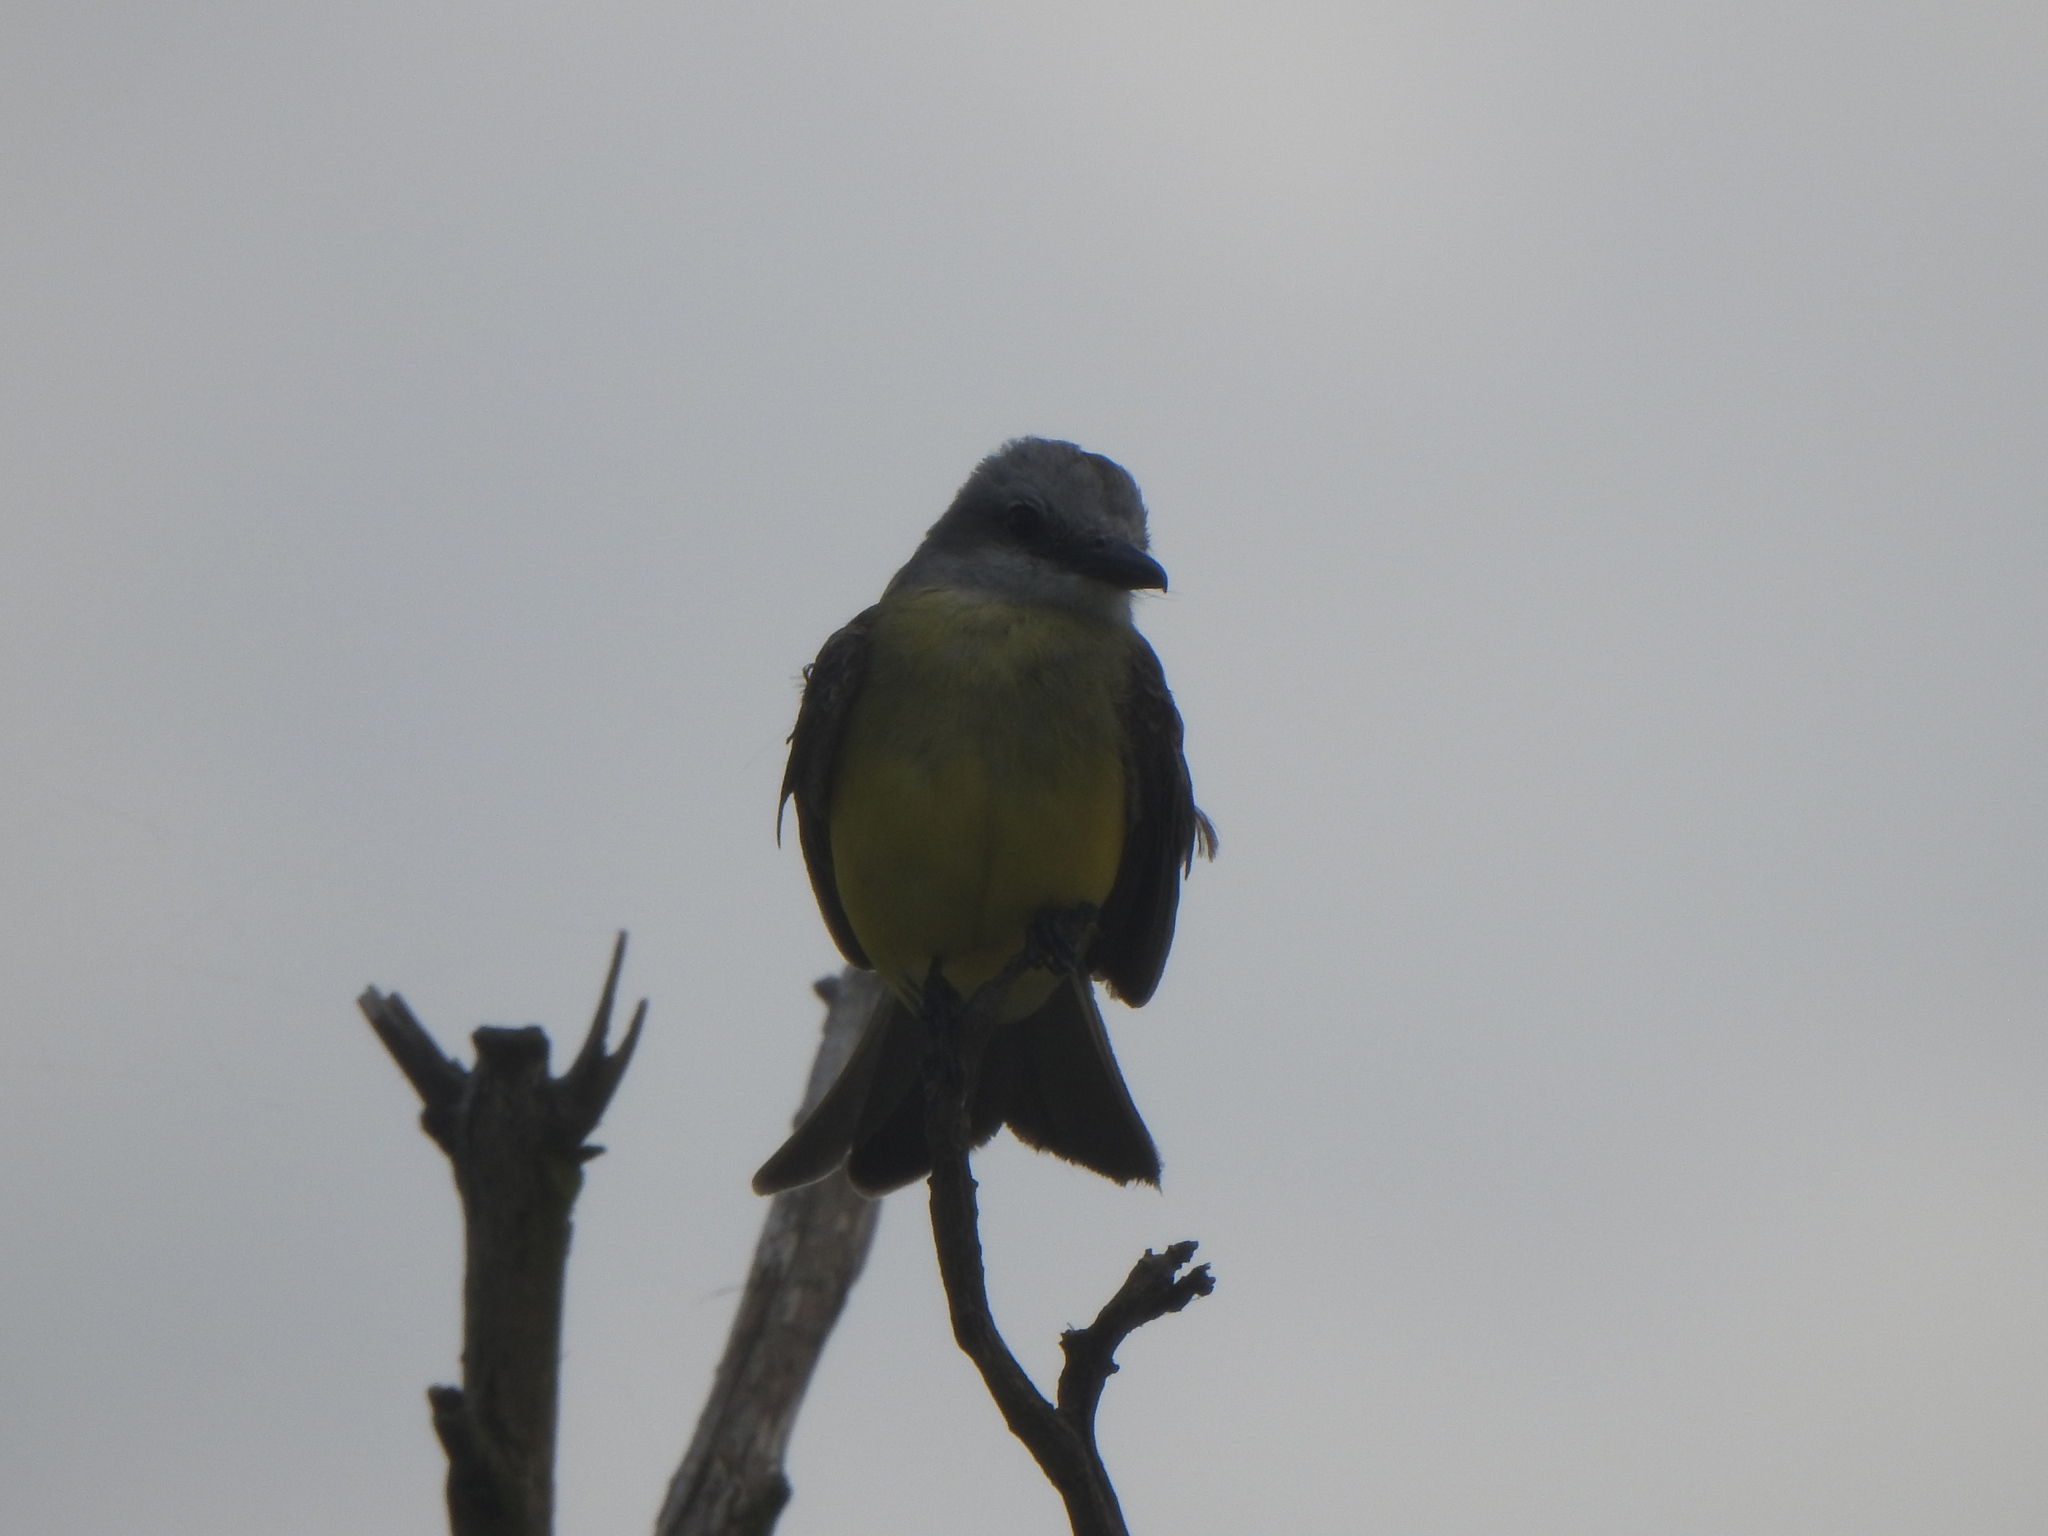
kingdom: Animalia
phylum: Chordata
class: Aves
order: Passeriformes
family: Tyrannidae
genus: Tyrannus
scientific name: Tyrannus melancholicus
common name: Tropical kingbird
